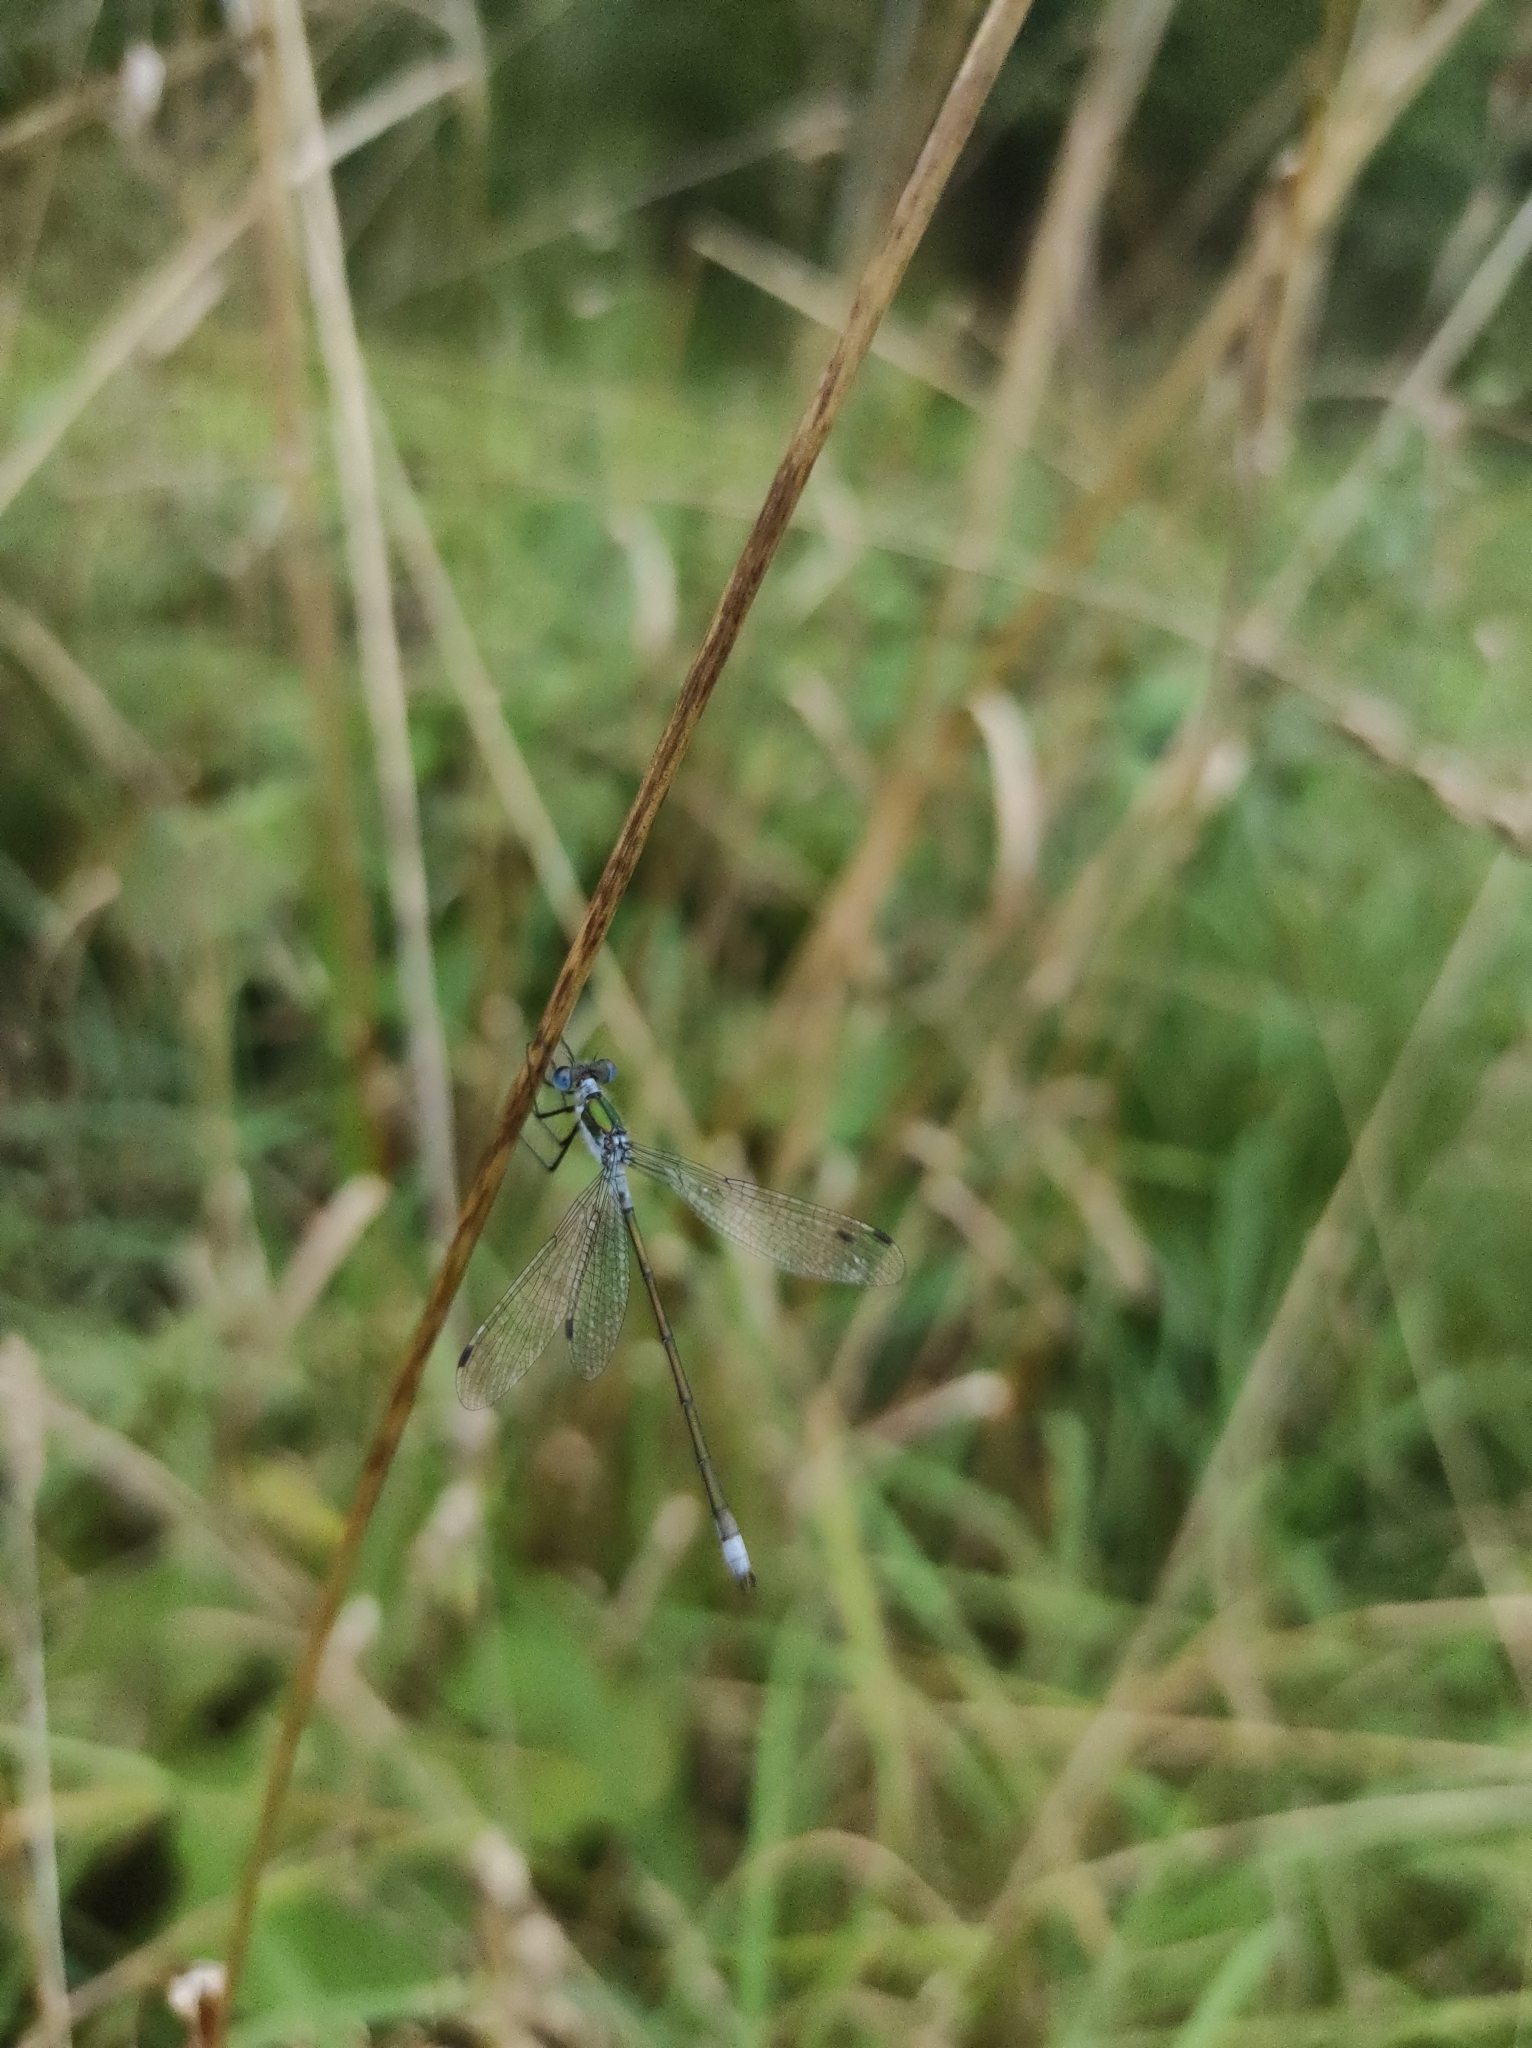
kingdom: Animalia
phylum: Arthropoda
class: Insecta
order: Odonata
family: Lestidae
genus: Lestes
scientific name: Lestes sponsa
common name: Common spreadwing
